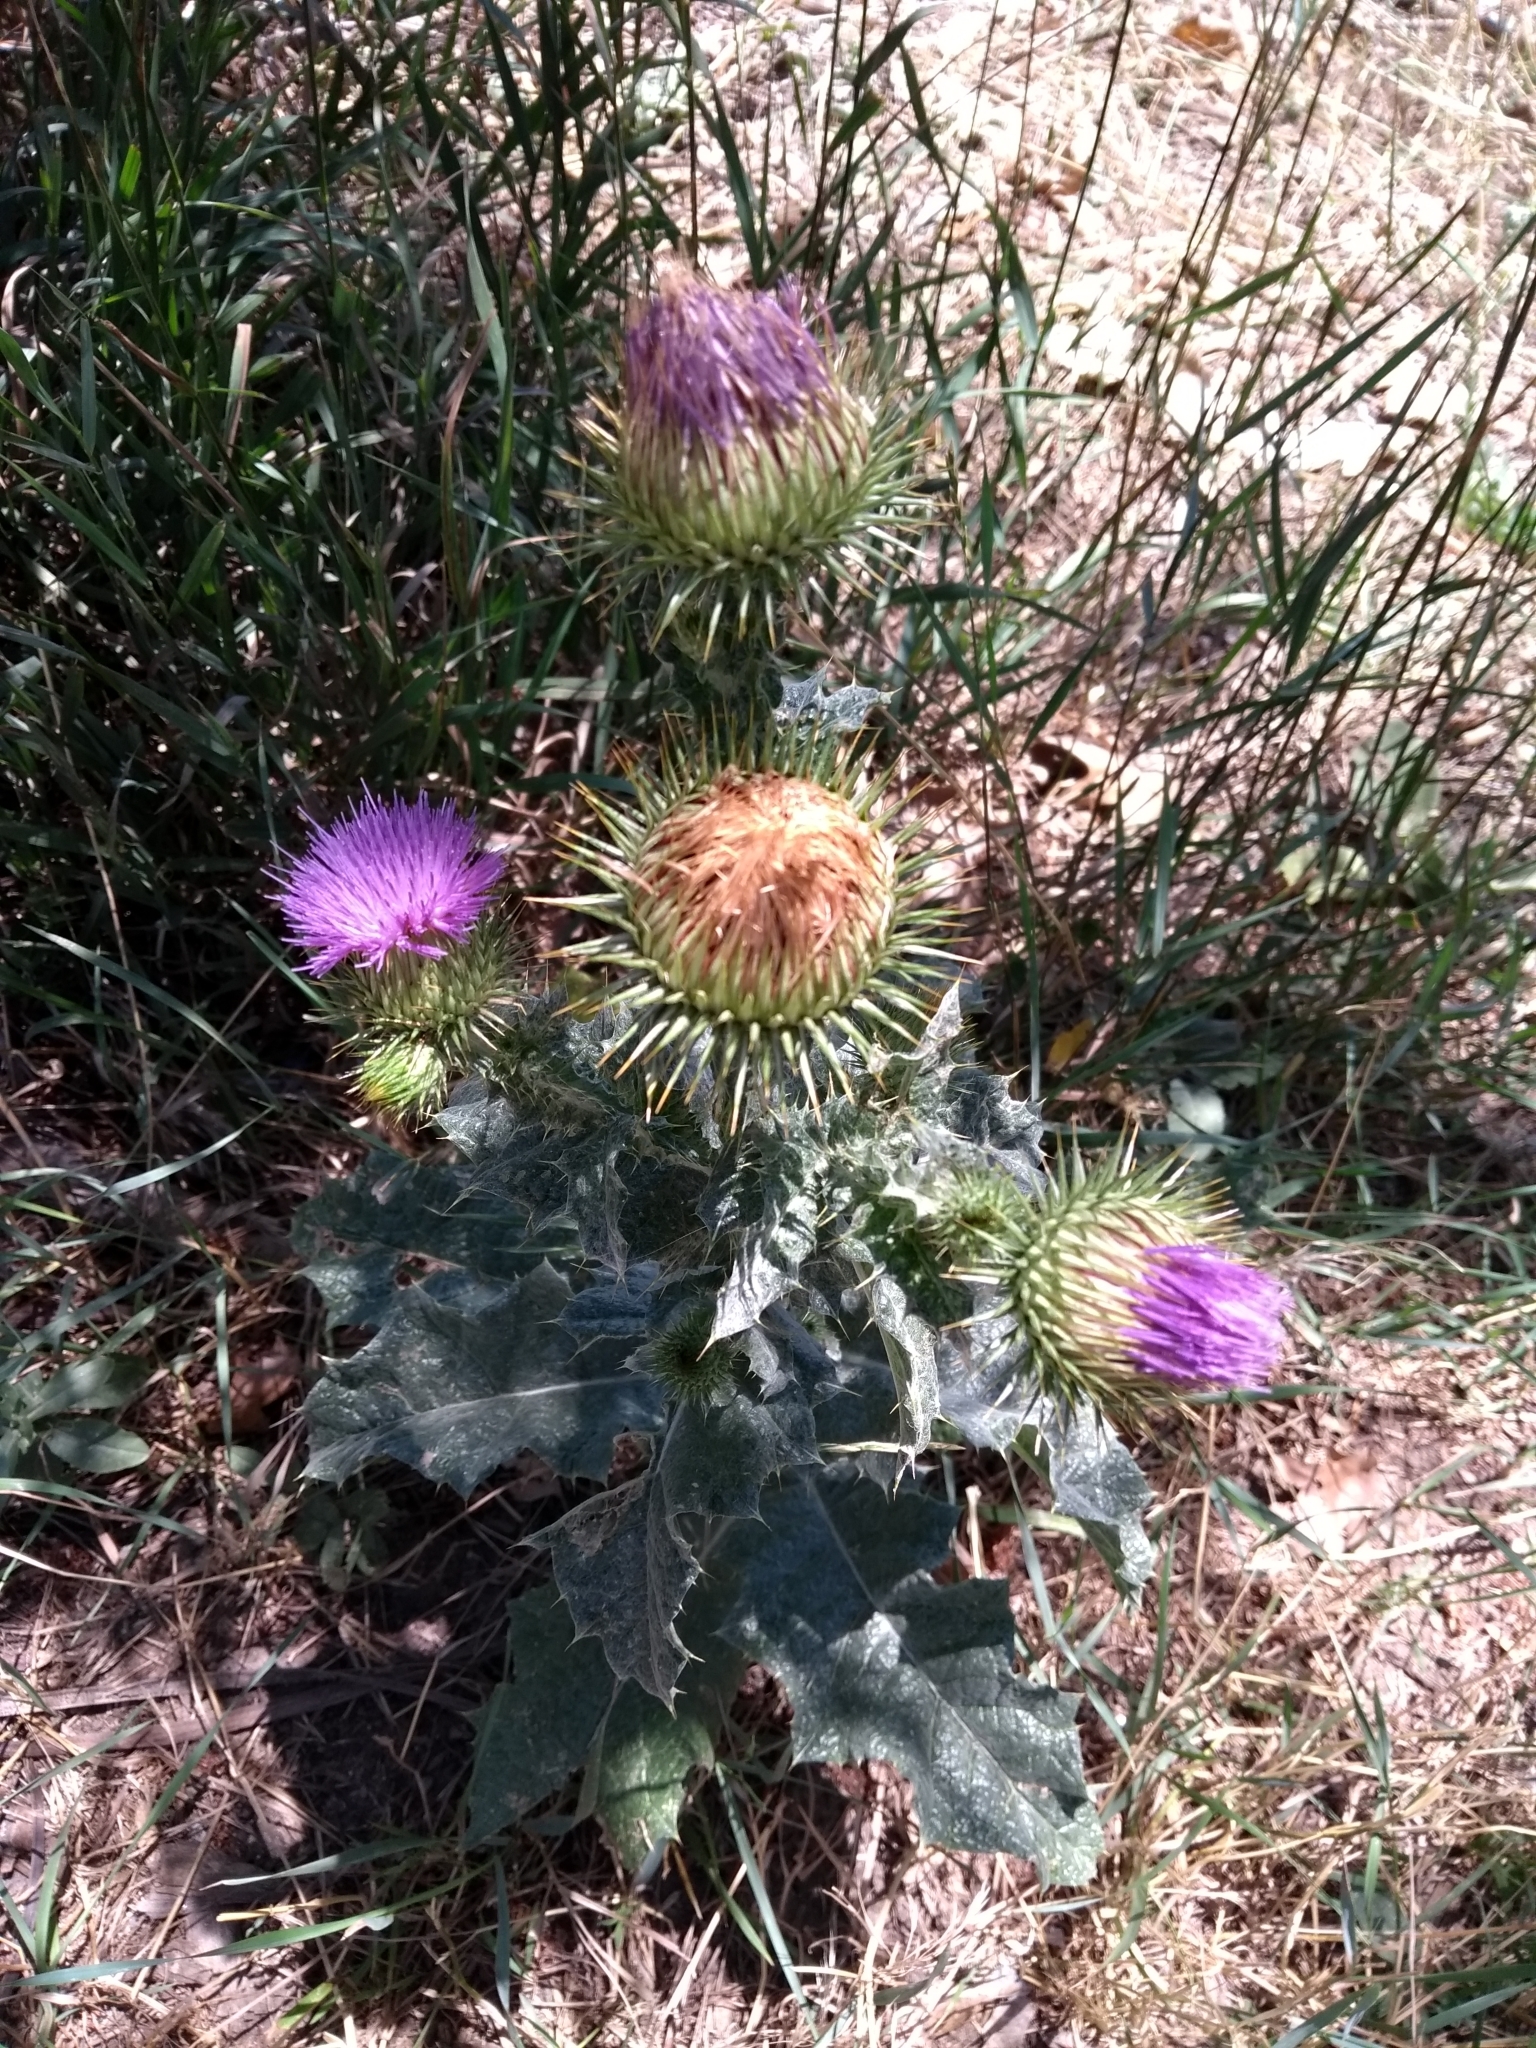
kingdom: Plantae
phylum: Tracheophyta
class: Magnoliopsida
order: Asterales
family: Asteraceae
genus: Onopordum
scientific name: Onopordum acanthium
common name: Scotch thistle
